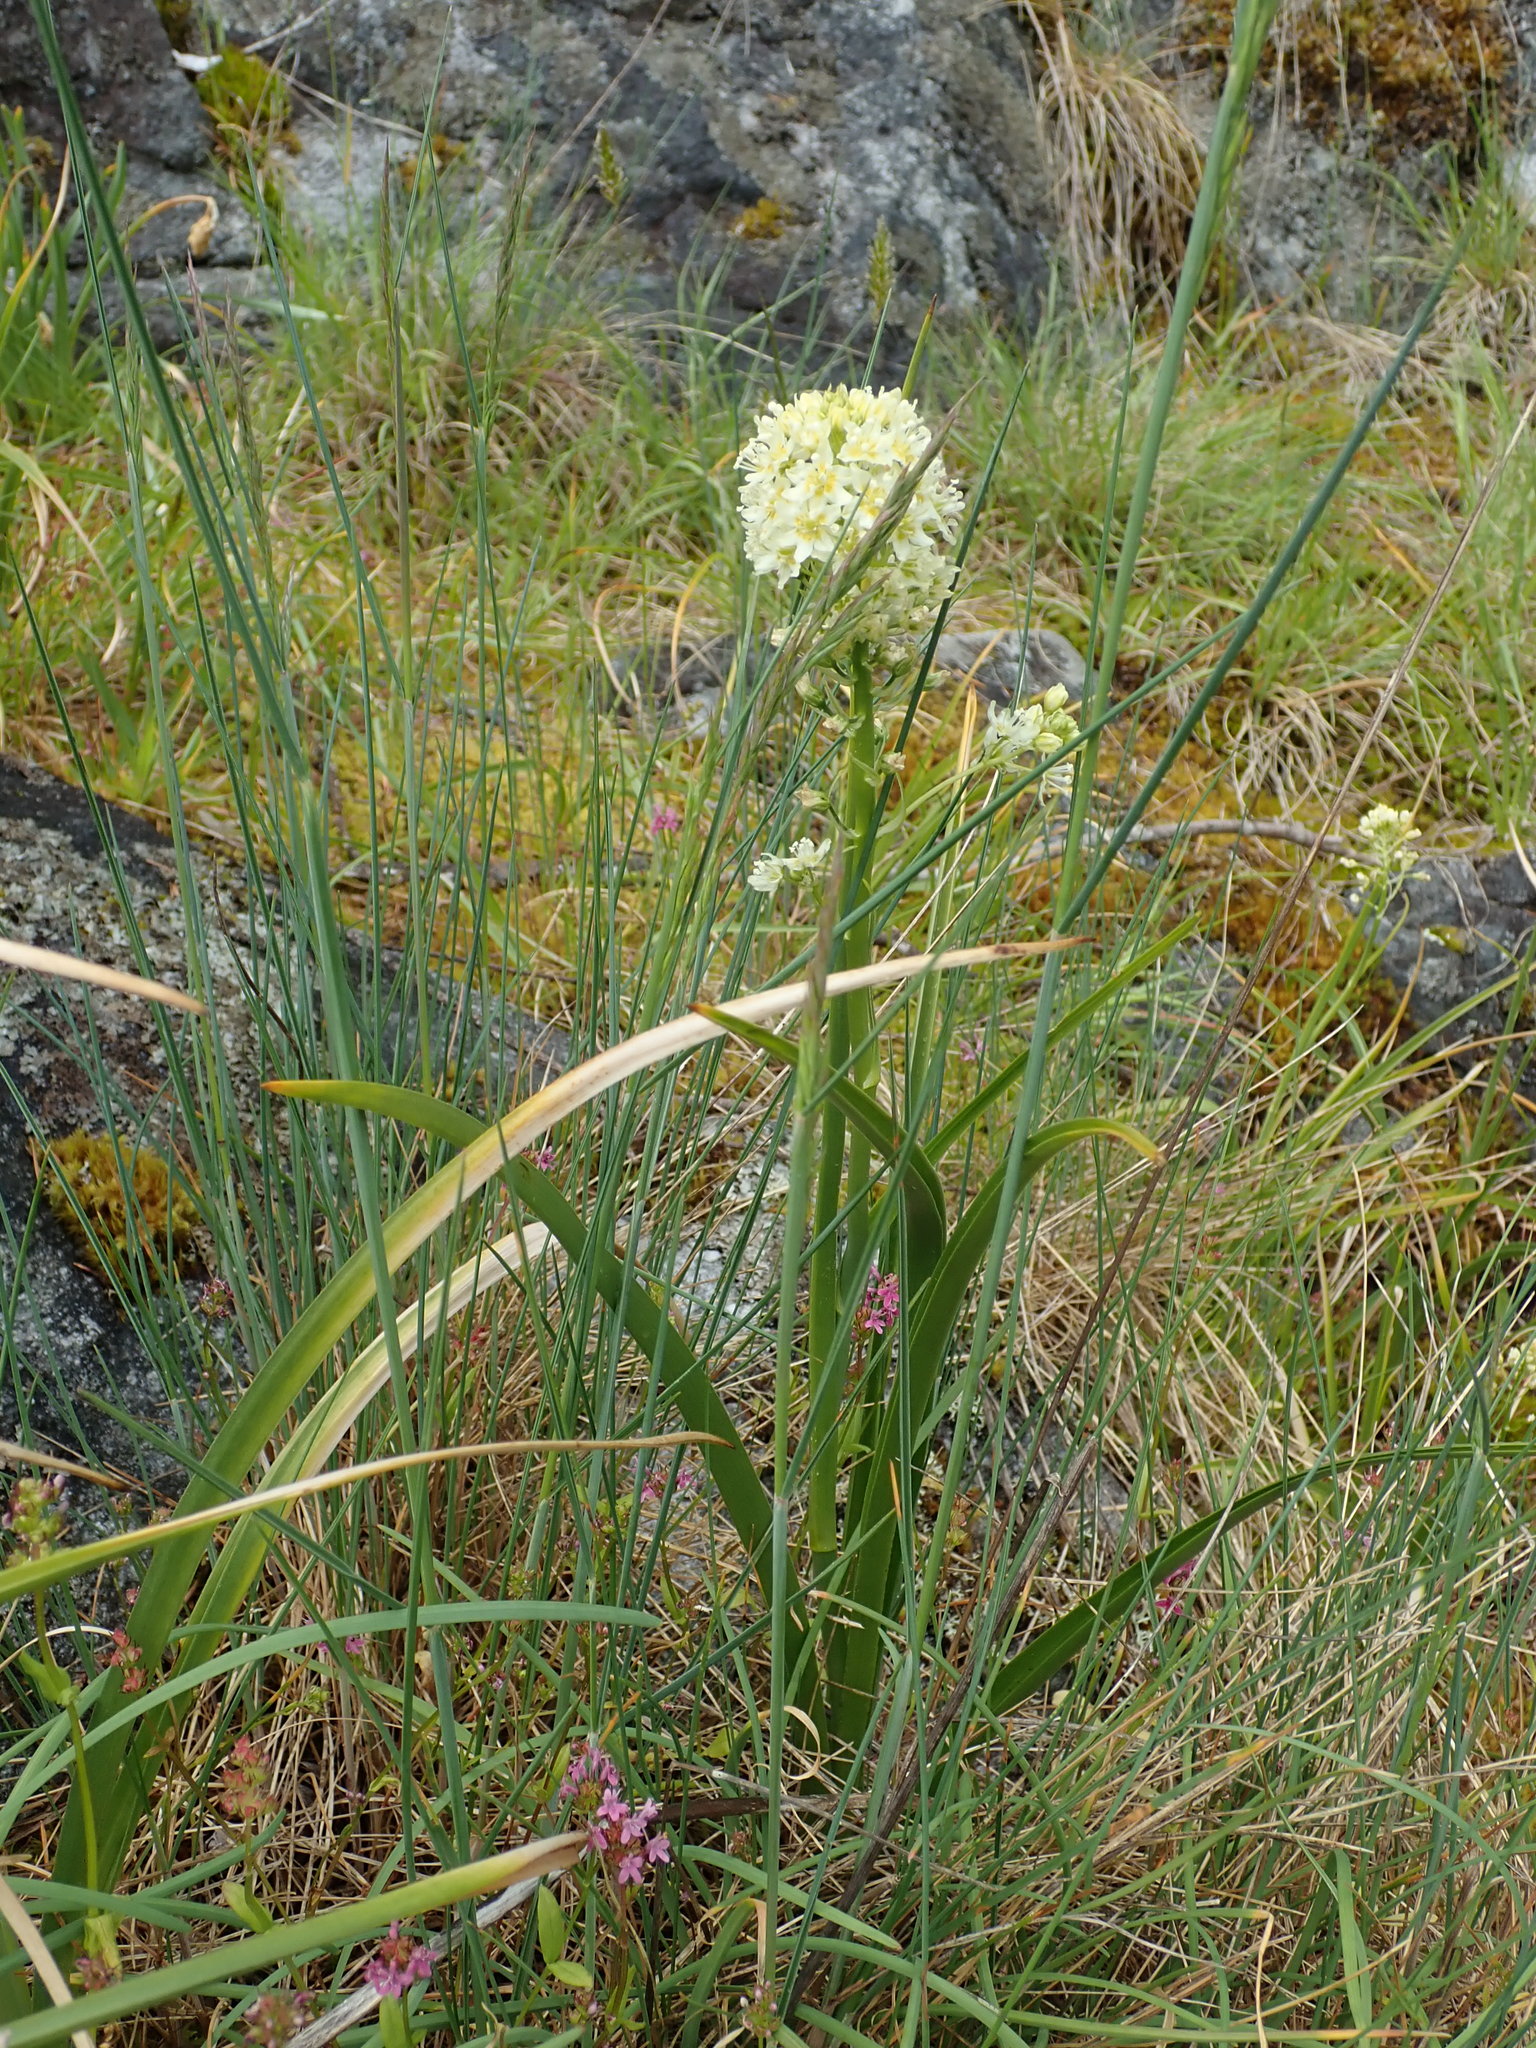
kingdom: Plantae
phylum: Tracheophyta
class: Liliopsida
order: Liliales
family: Melanthiaceae
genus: Toxicoscordion
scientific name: Toxicoscordion venenosum
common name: Meadow death camas
